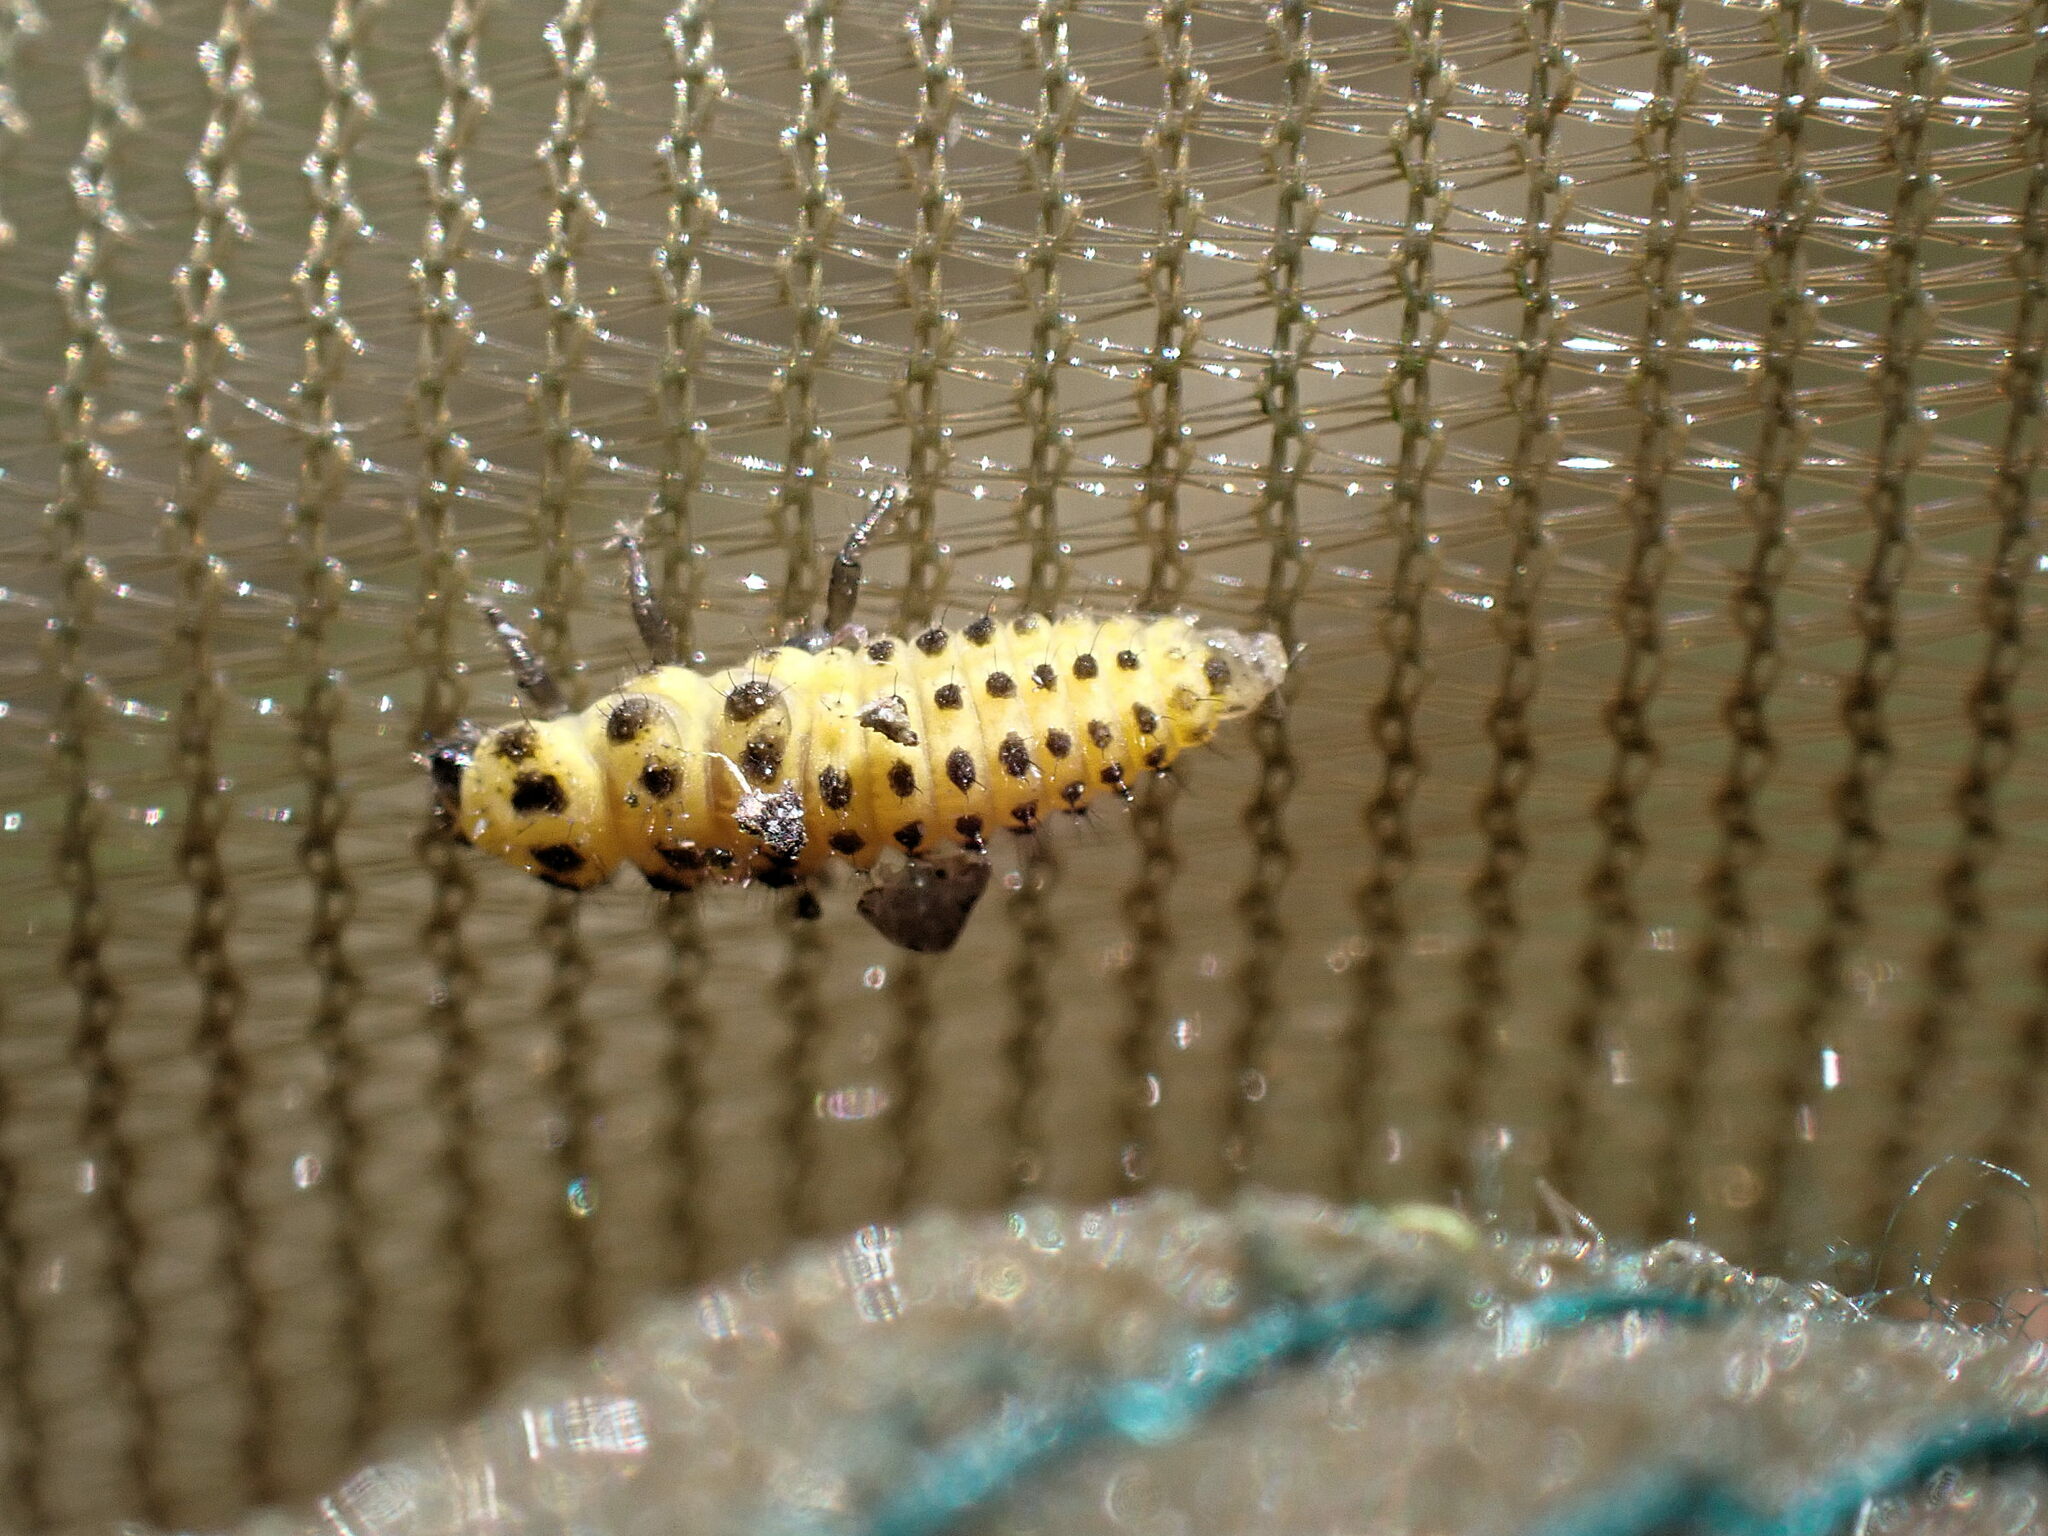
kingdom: Animalia
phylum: Arthropoda
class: Insecta
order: Coleoptera
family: Coccinellidae
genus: Psyllobora
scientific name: Psyllobora vigintiduopunctata
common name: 22-spot ladybird
